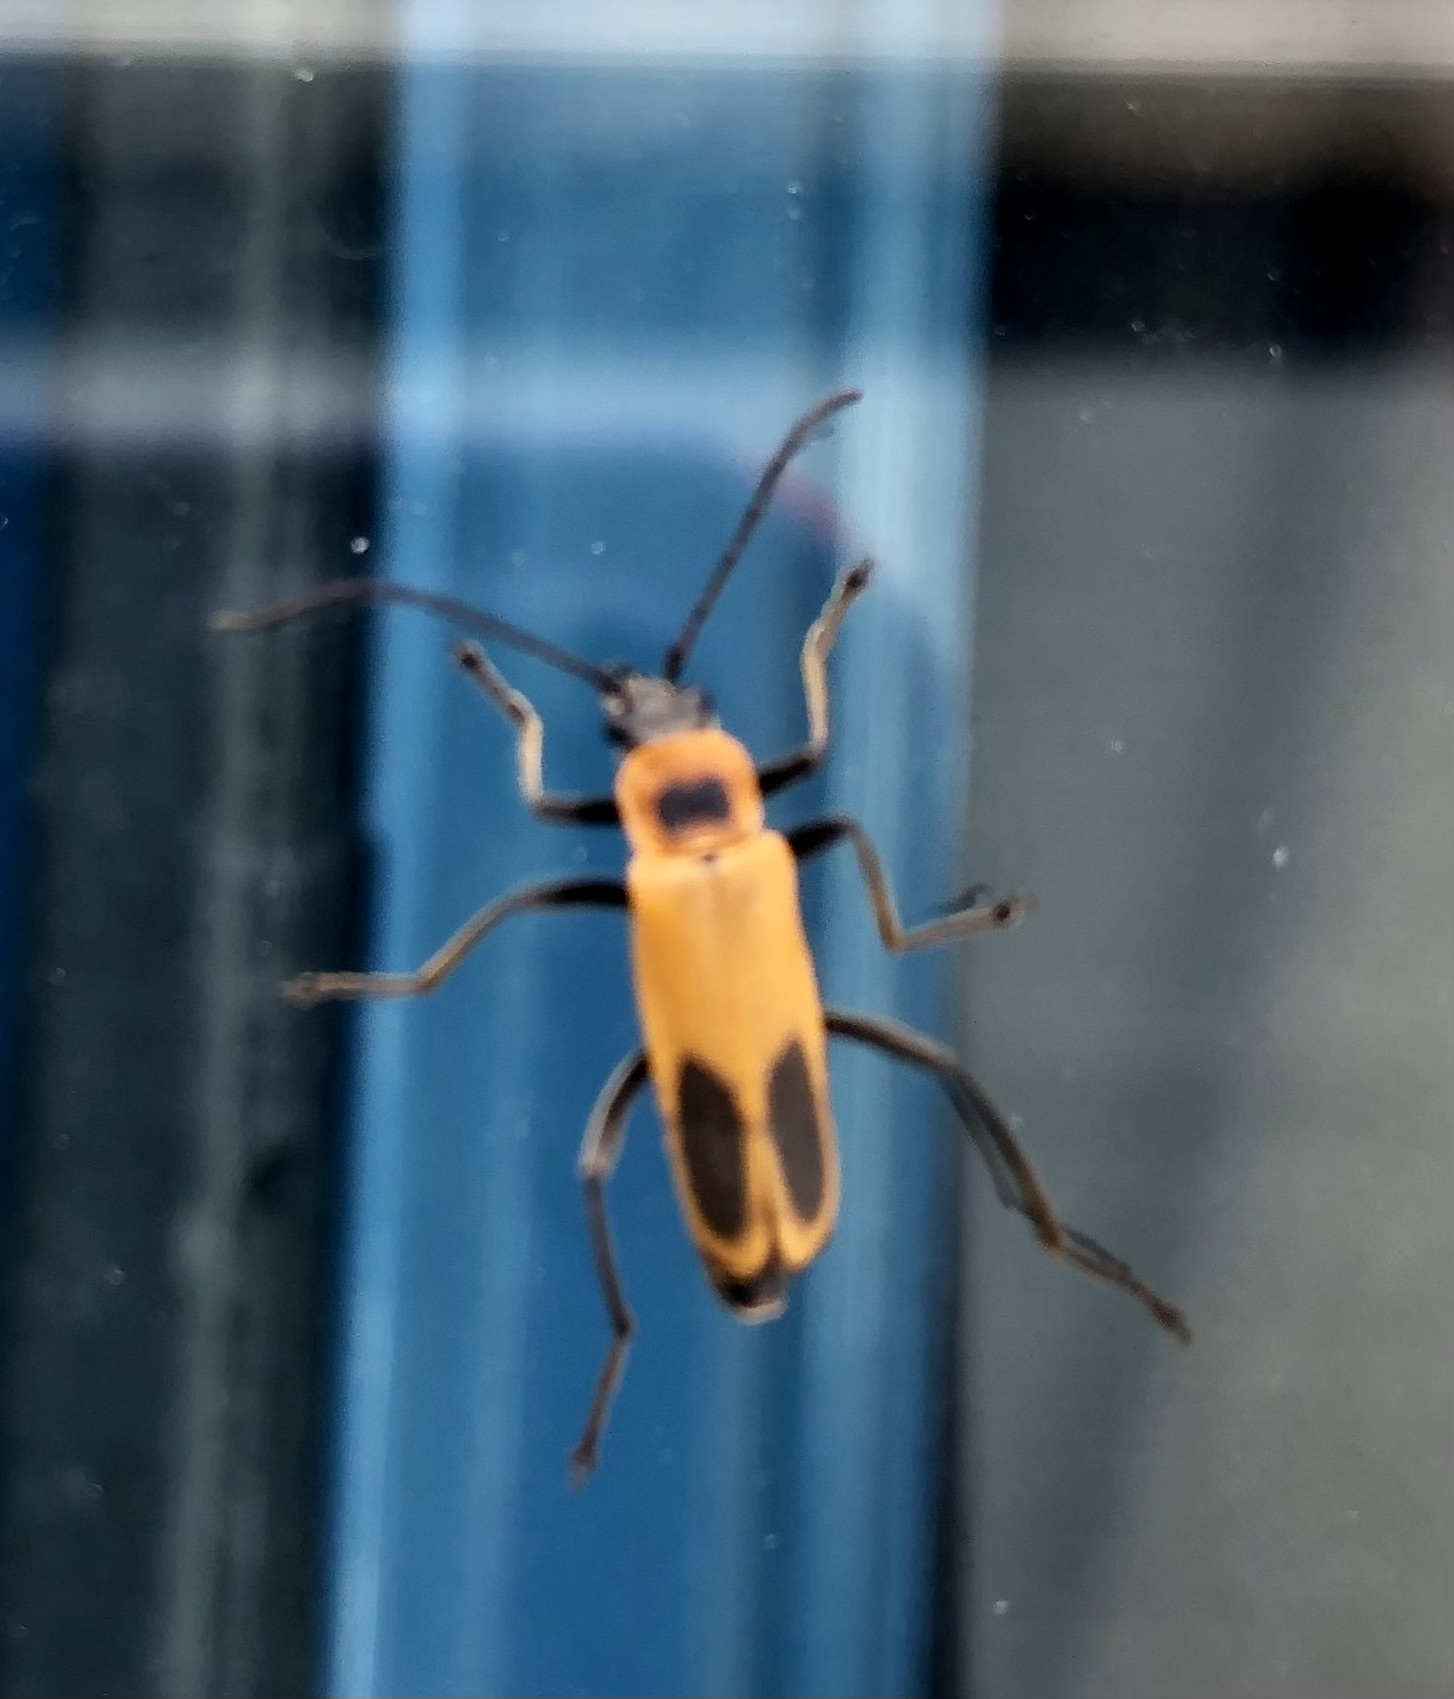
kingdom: Animalia
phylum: Arthropoda
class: Insecta
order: Coleoptera
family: Cantharidae
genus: Chauliognathus
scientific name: Chauliognathus pensylvanicus
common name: Goldenrod soldier beetle
